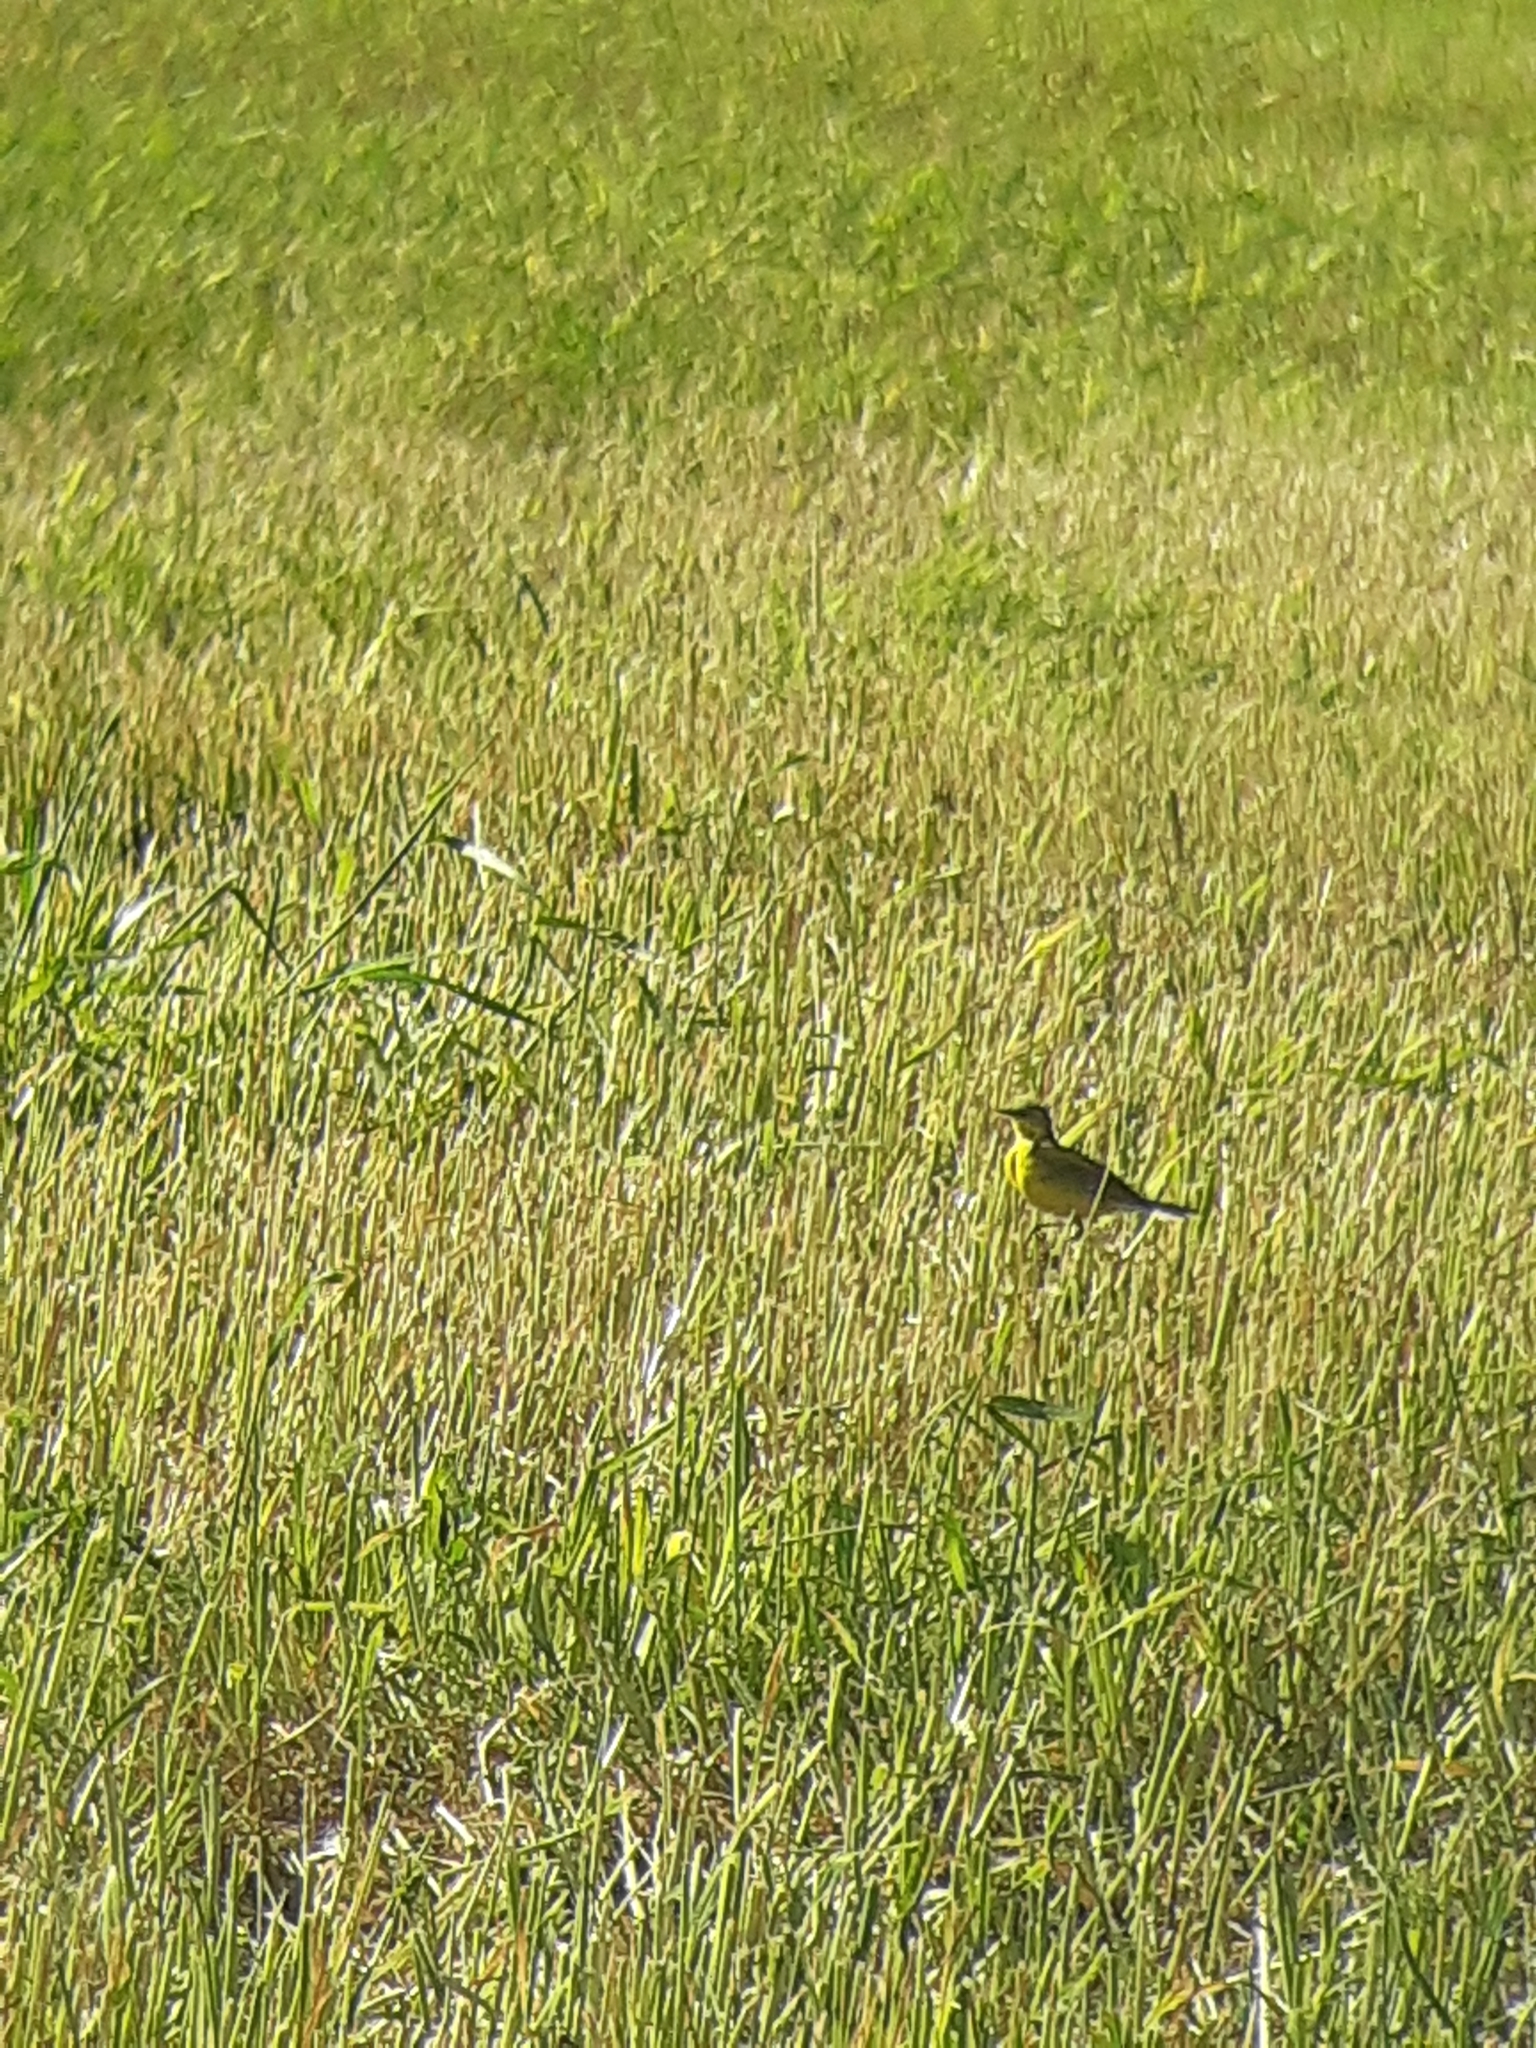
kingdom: Animalia
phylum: Chordata
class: Aves
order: Passeriformes
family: Motacillidae
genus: Motacilla
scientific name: Motacilla flava
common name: Western yellow wagtail
